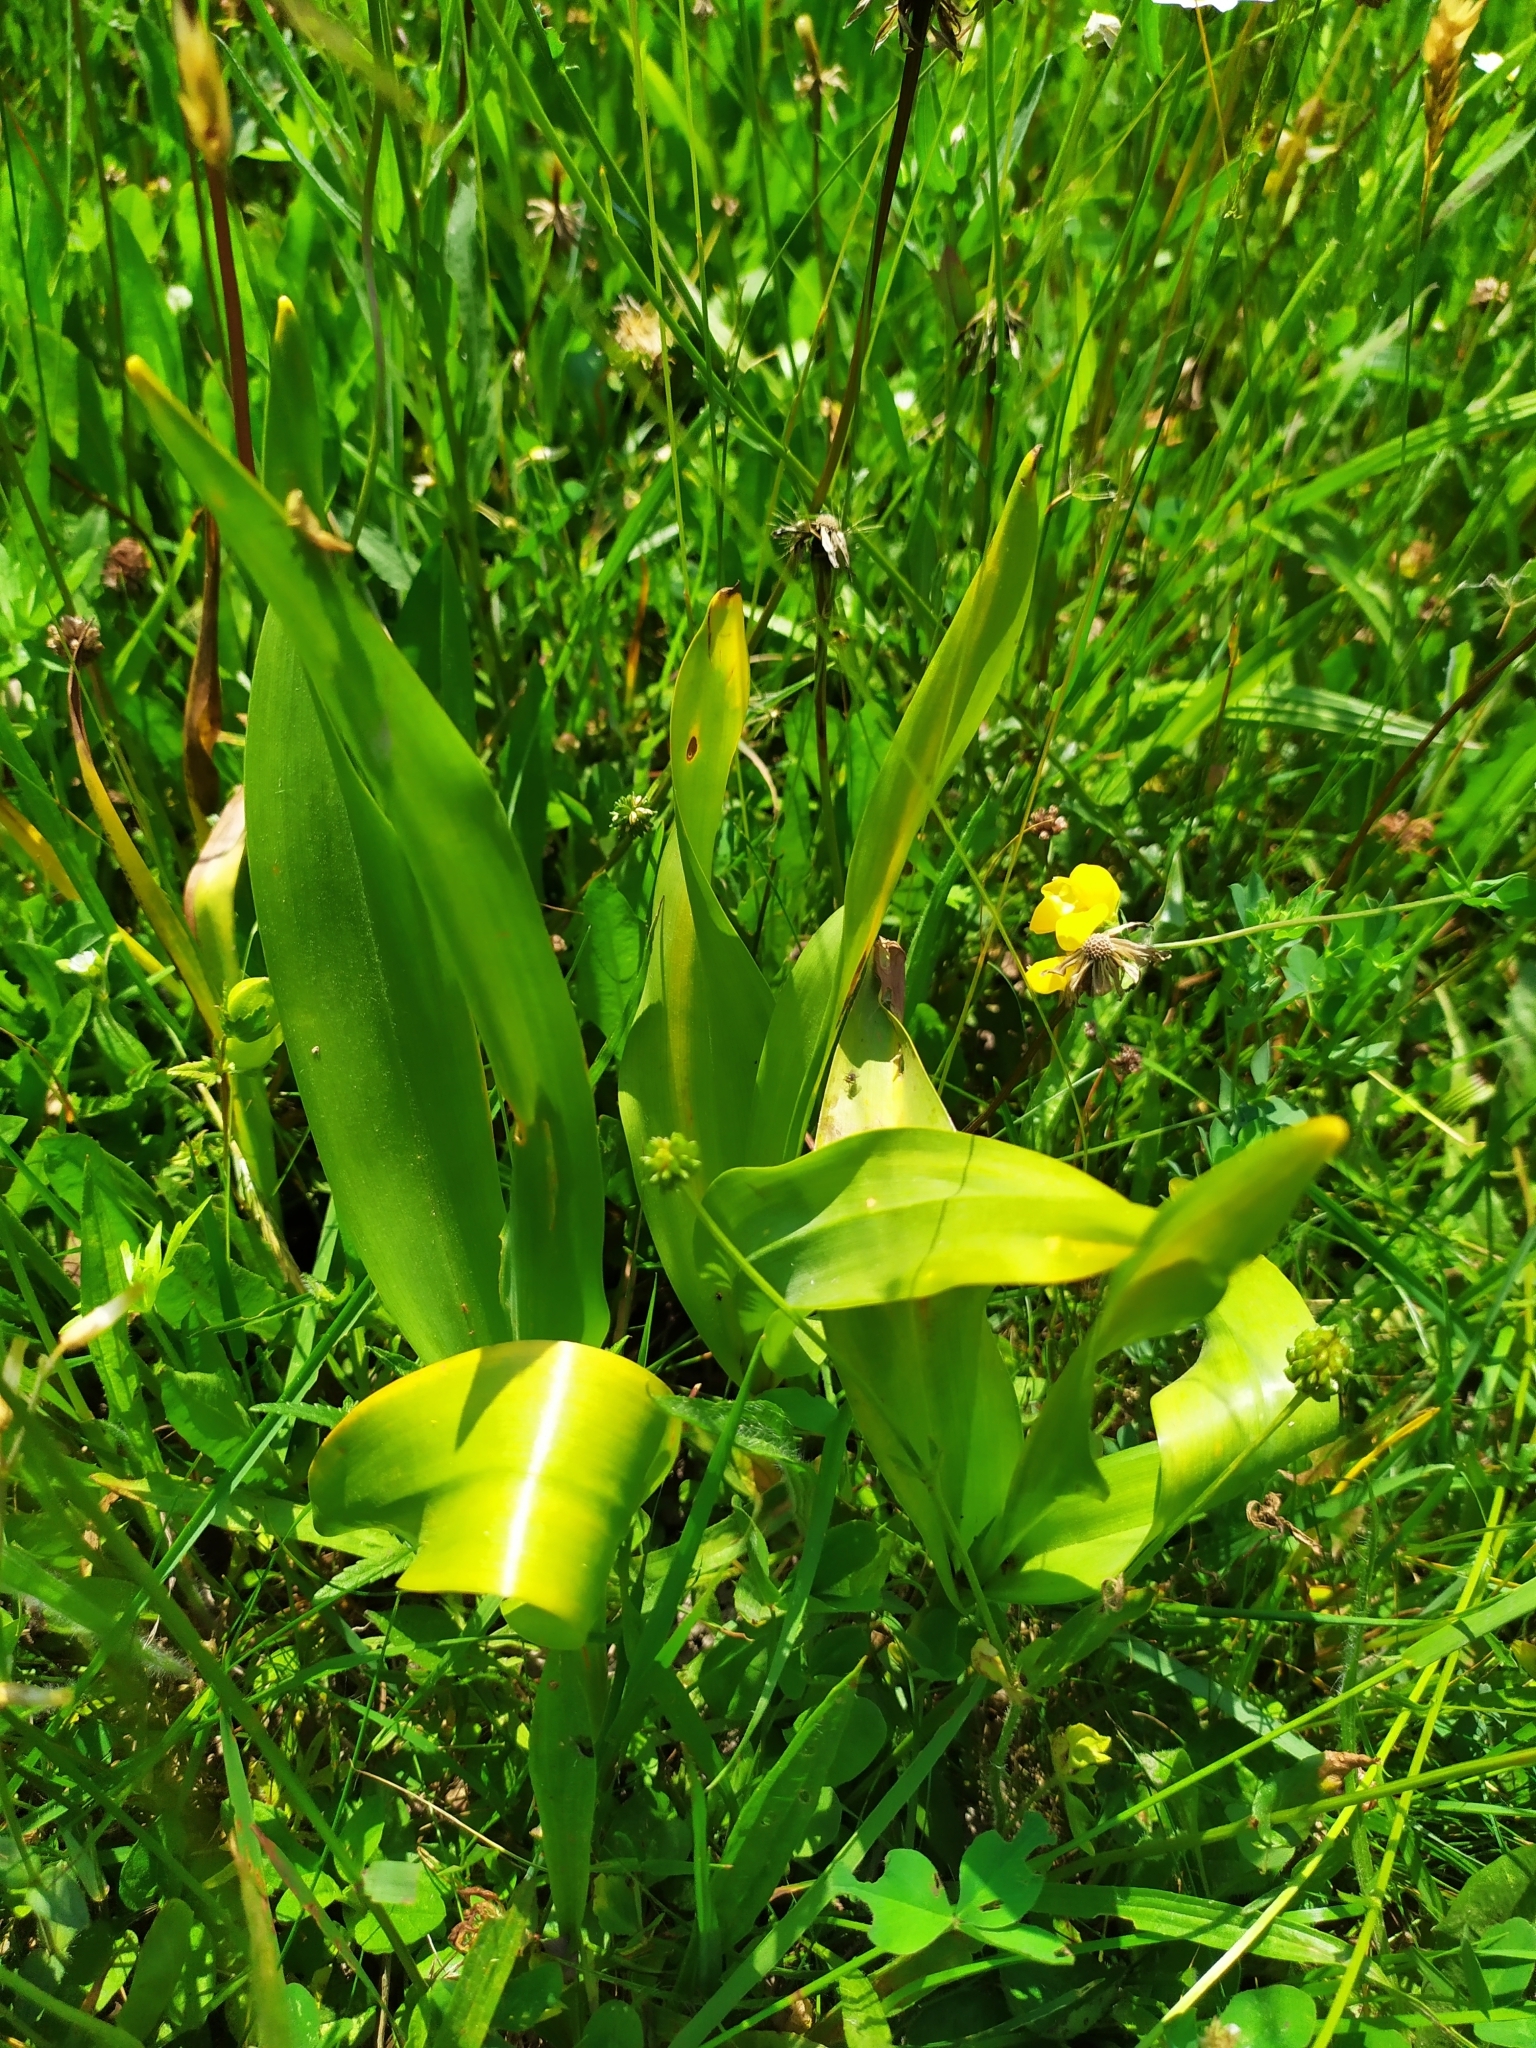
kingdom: Plantae
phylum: Tracheophyta
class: Liliopsida
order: Liliales
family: Colchicaceae
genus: Colchicum
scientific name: Colchicum autumnale
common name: Autumn crocus
